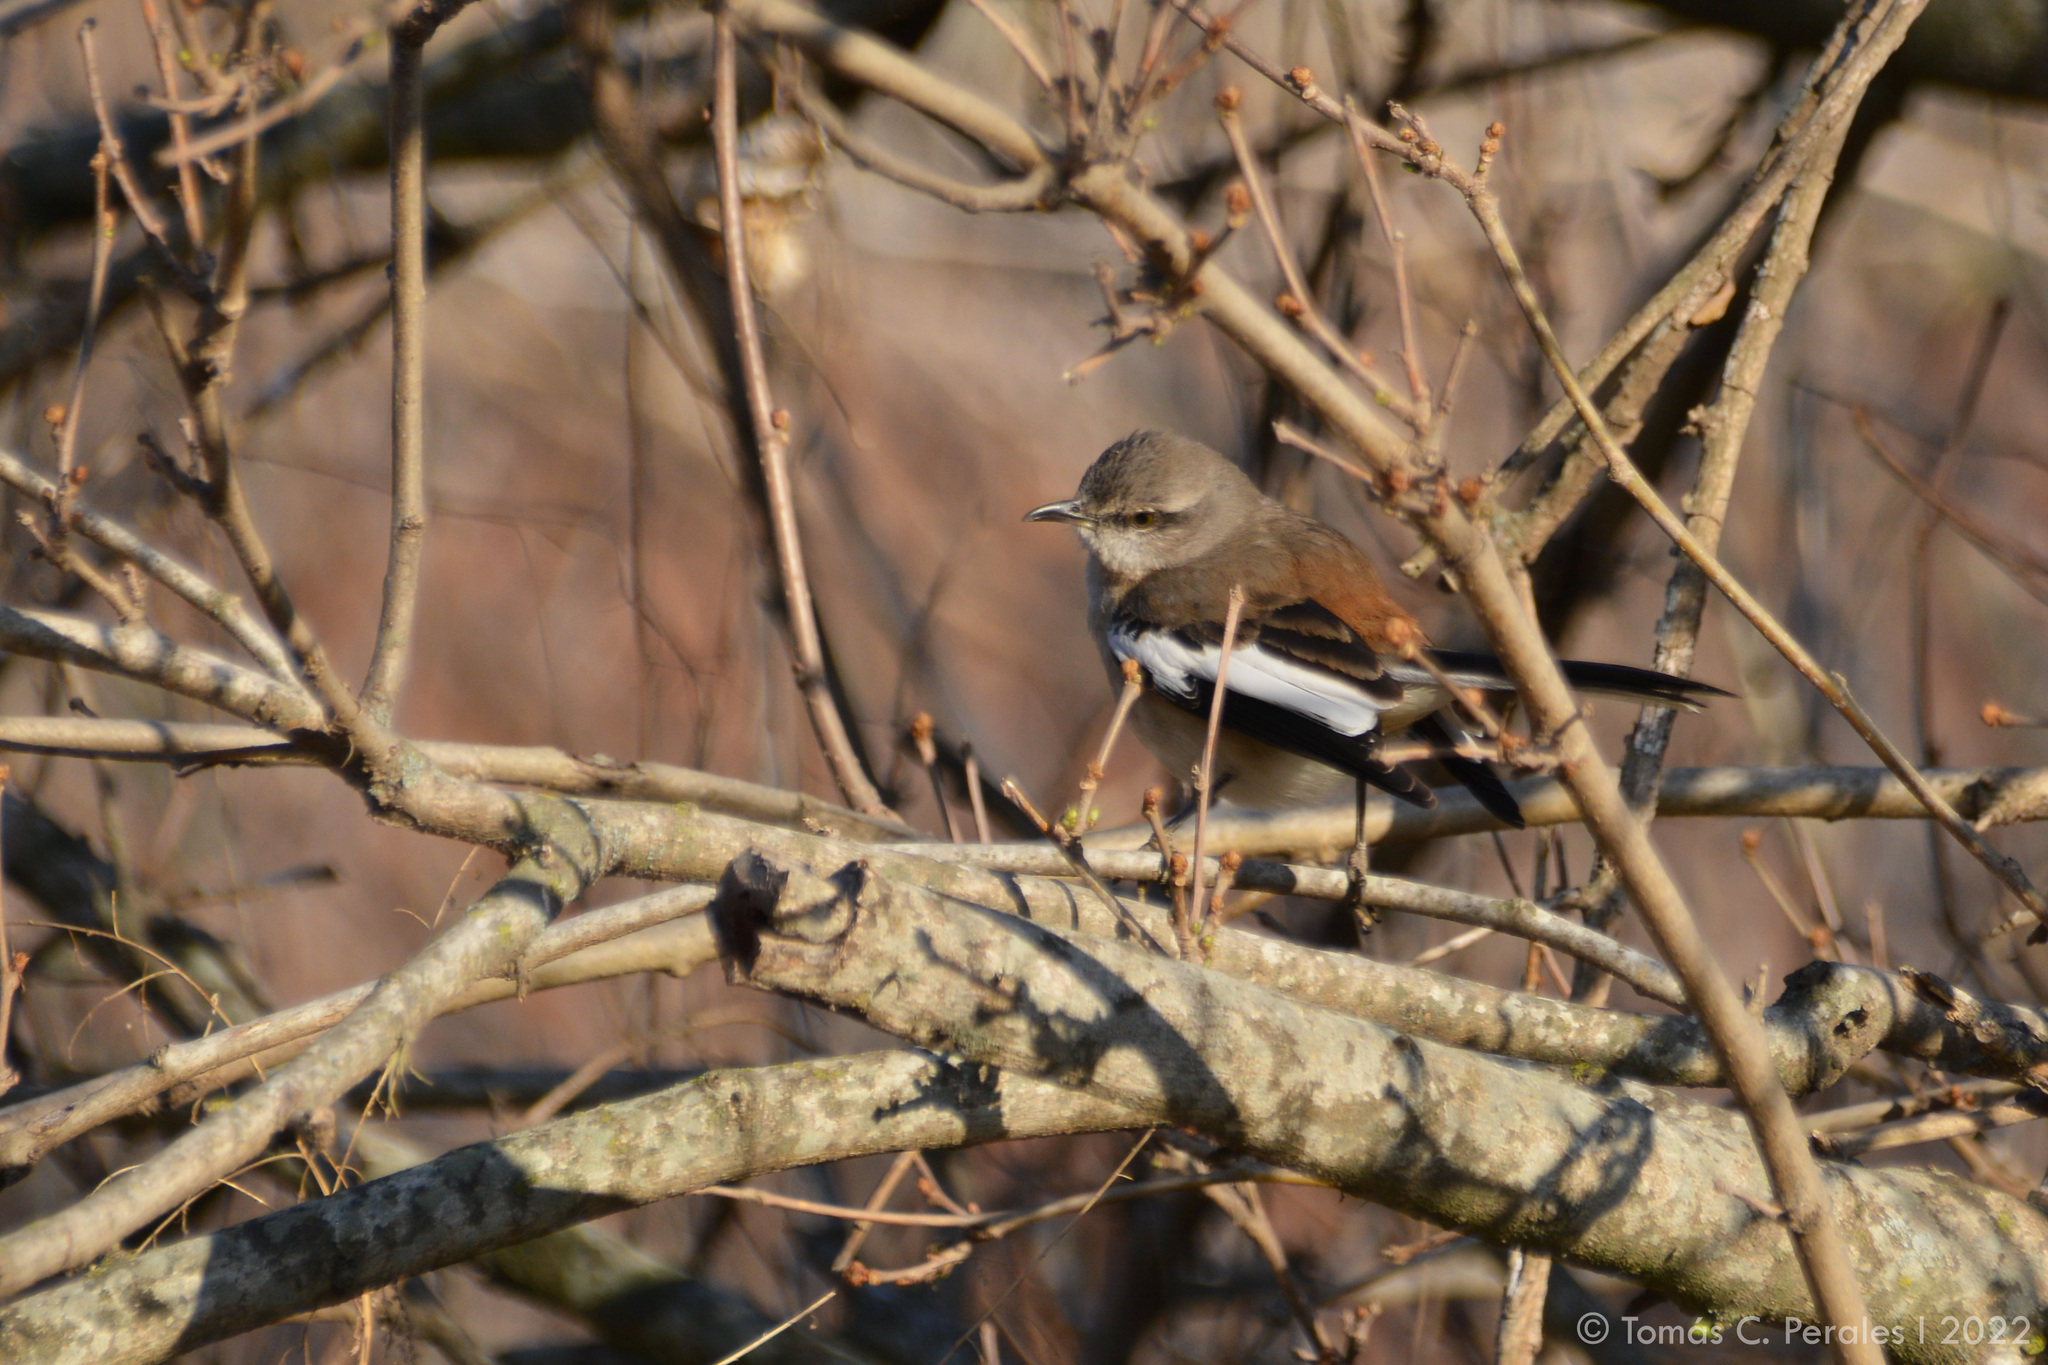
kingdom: Animalia
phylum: Chordata
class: Aves
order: Passeriformes
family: Mimidae
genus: Mimus
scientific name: Mimus triurus
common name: White-banded mockingbird
